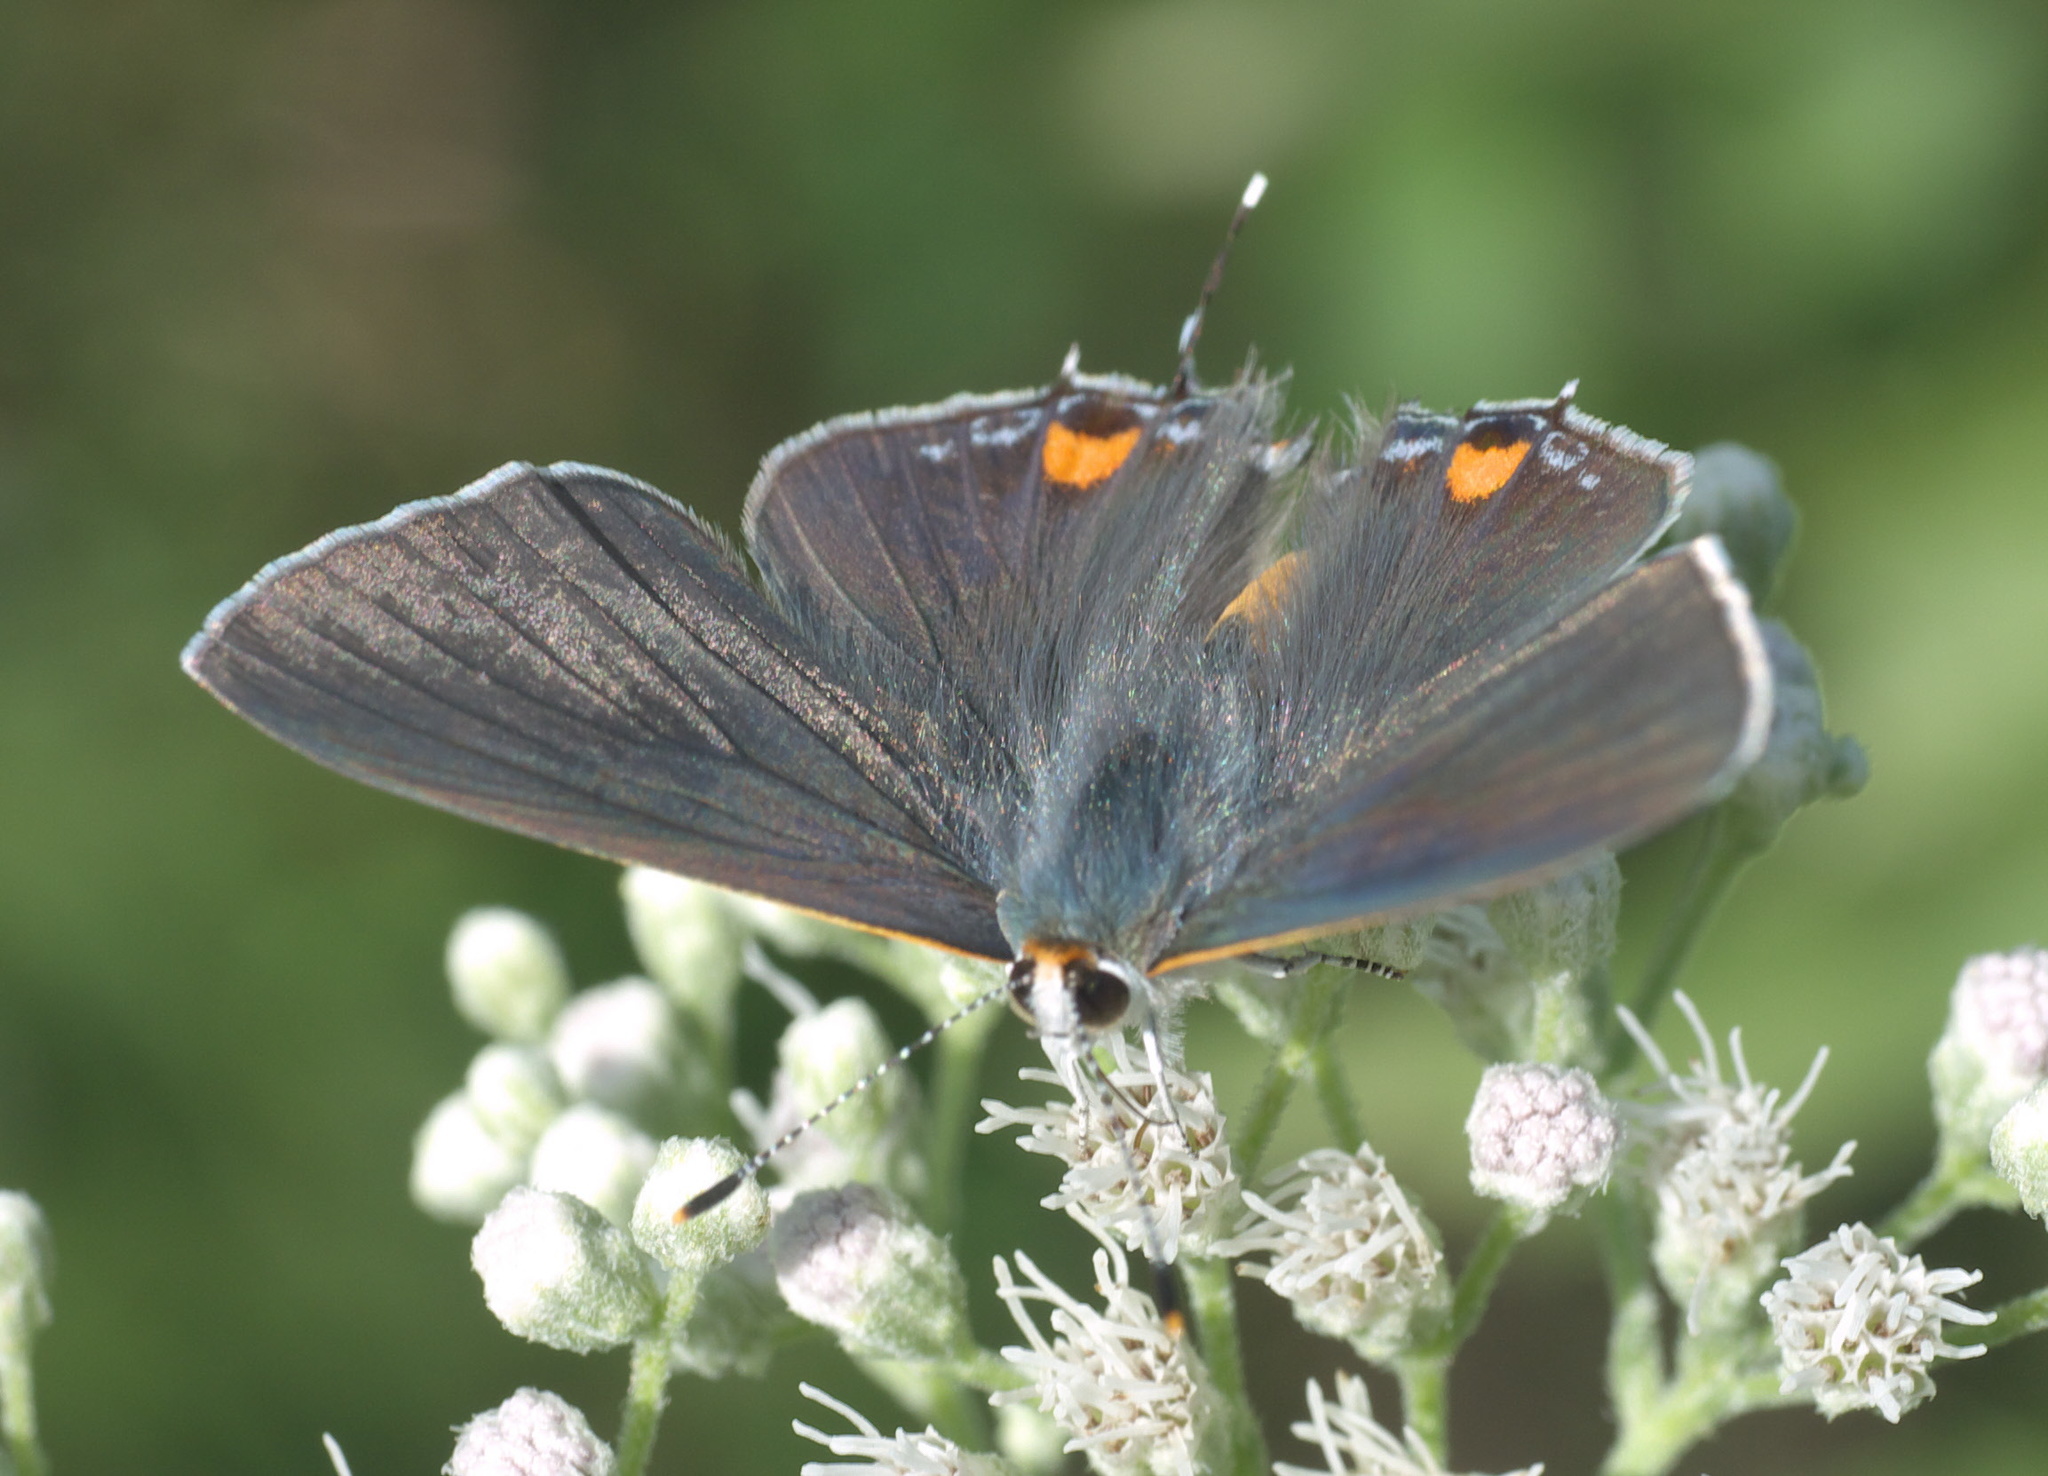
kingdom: Animalia
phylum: Arthropoda
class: Insecta
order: Lepidoptera
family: Lycaenidae
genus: Strymon
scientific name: Strymon melinus
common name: Gray hairstreak
